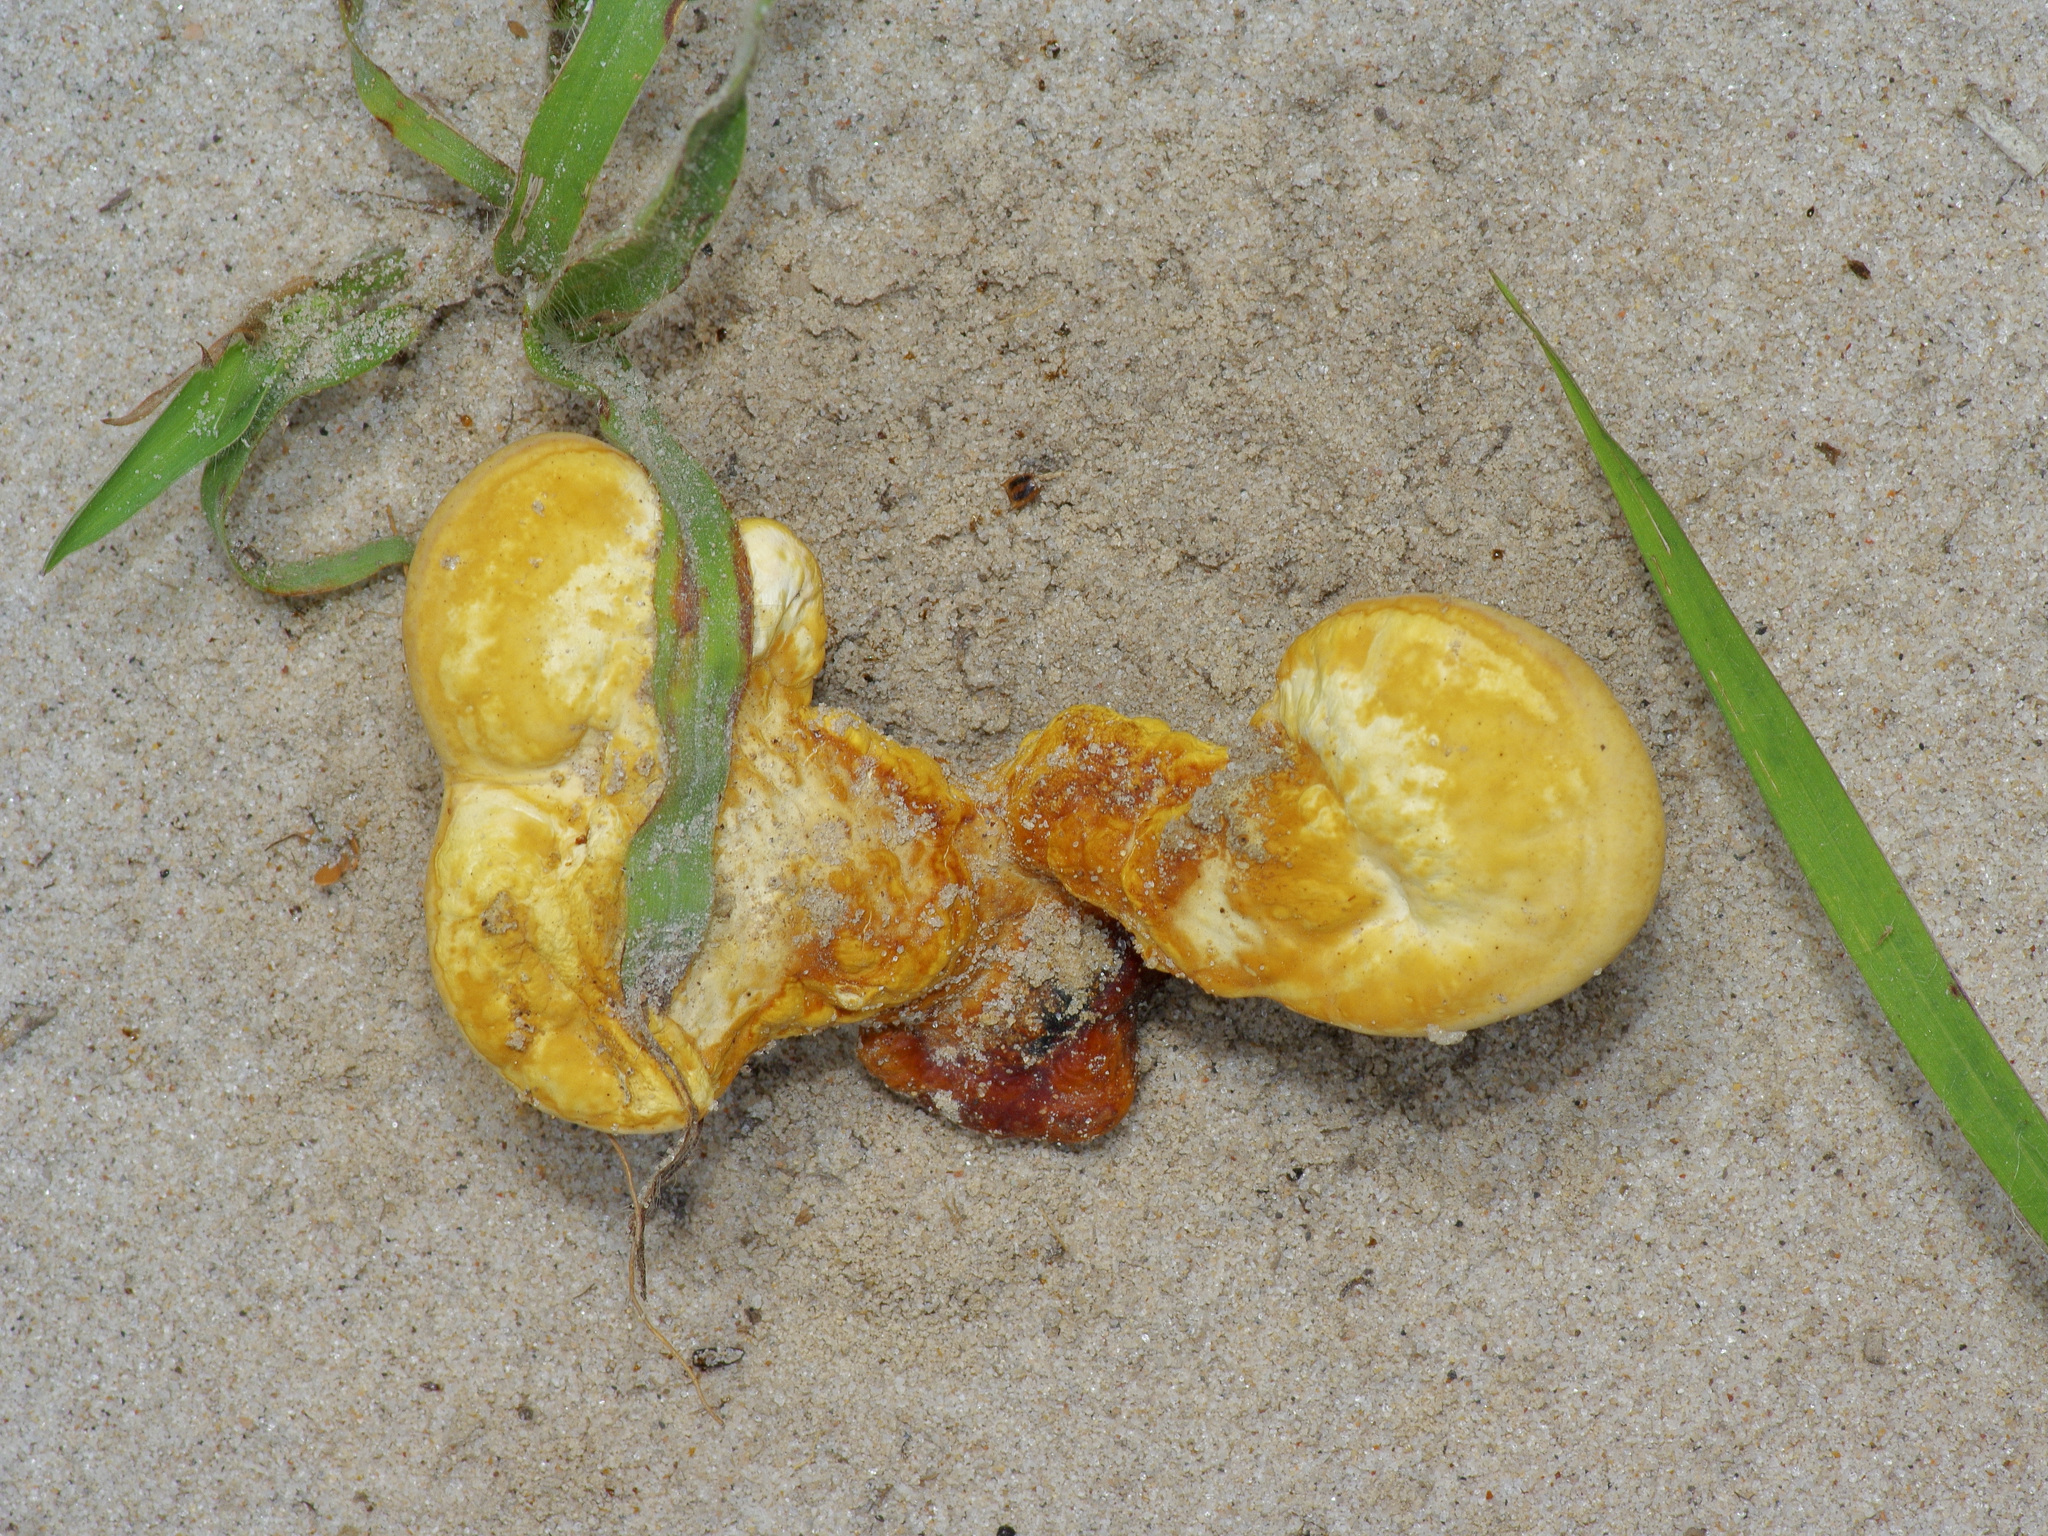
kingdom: Fungi
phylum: Basidiomycota
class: Agaricomycetes
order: Polyporales
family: Polyporaceae
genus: Ganoderma
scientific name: Ganoderma curtisii
